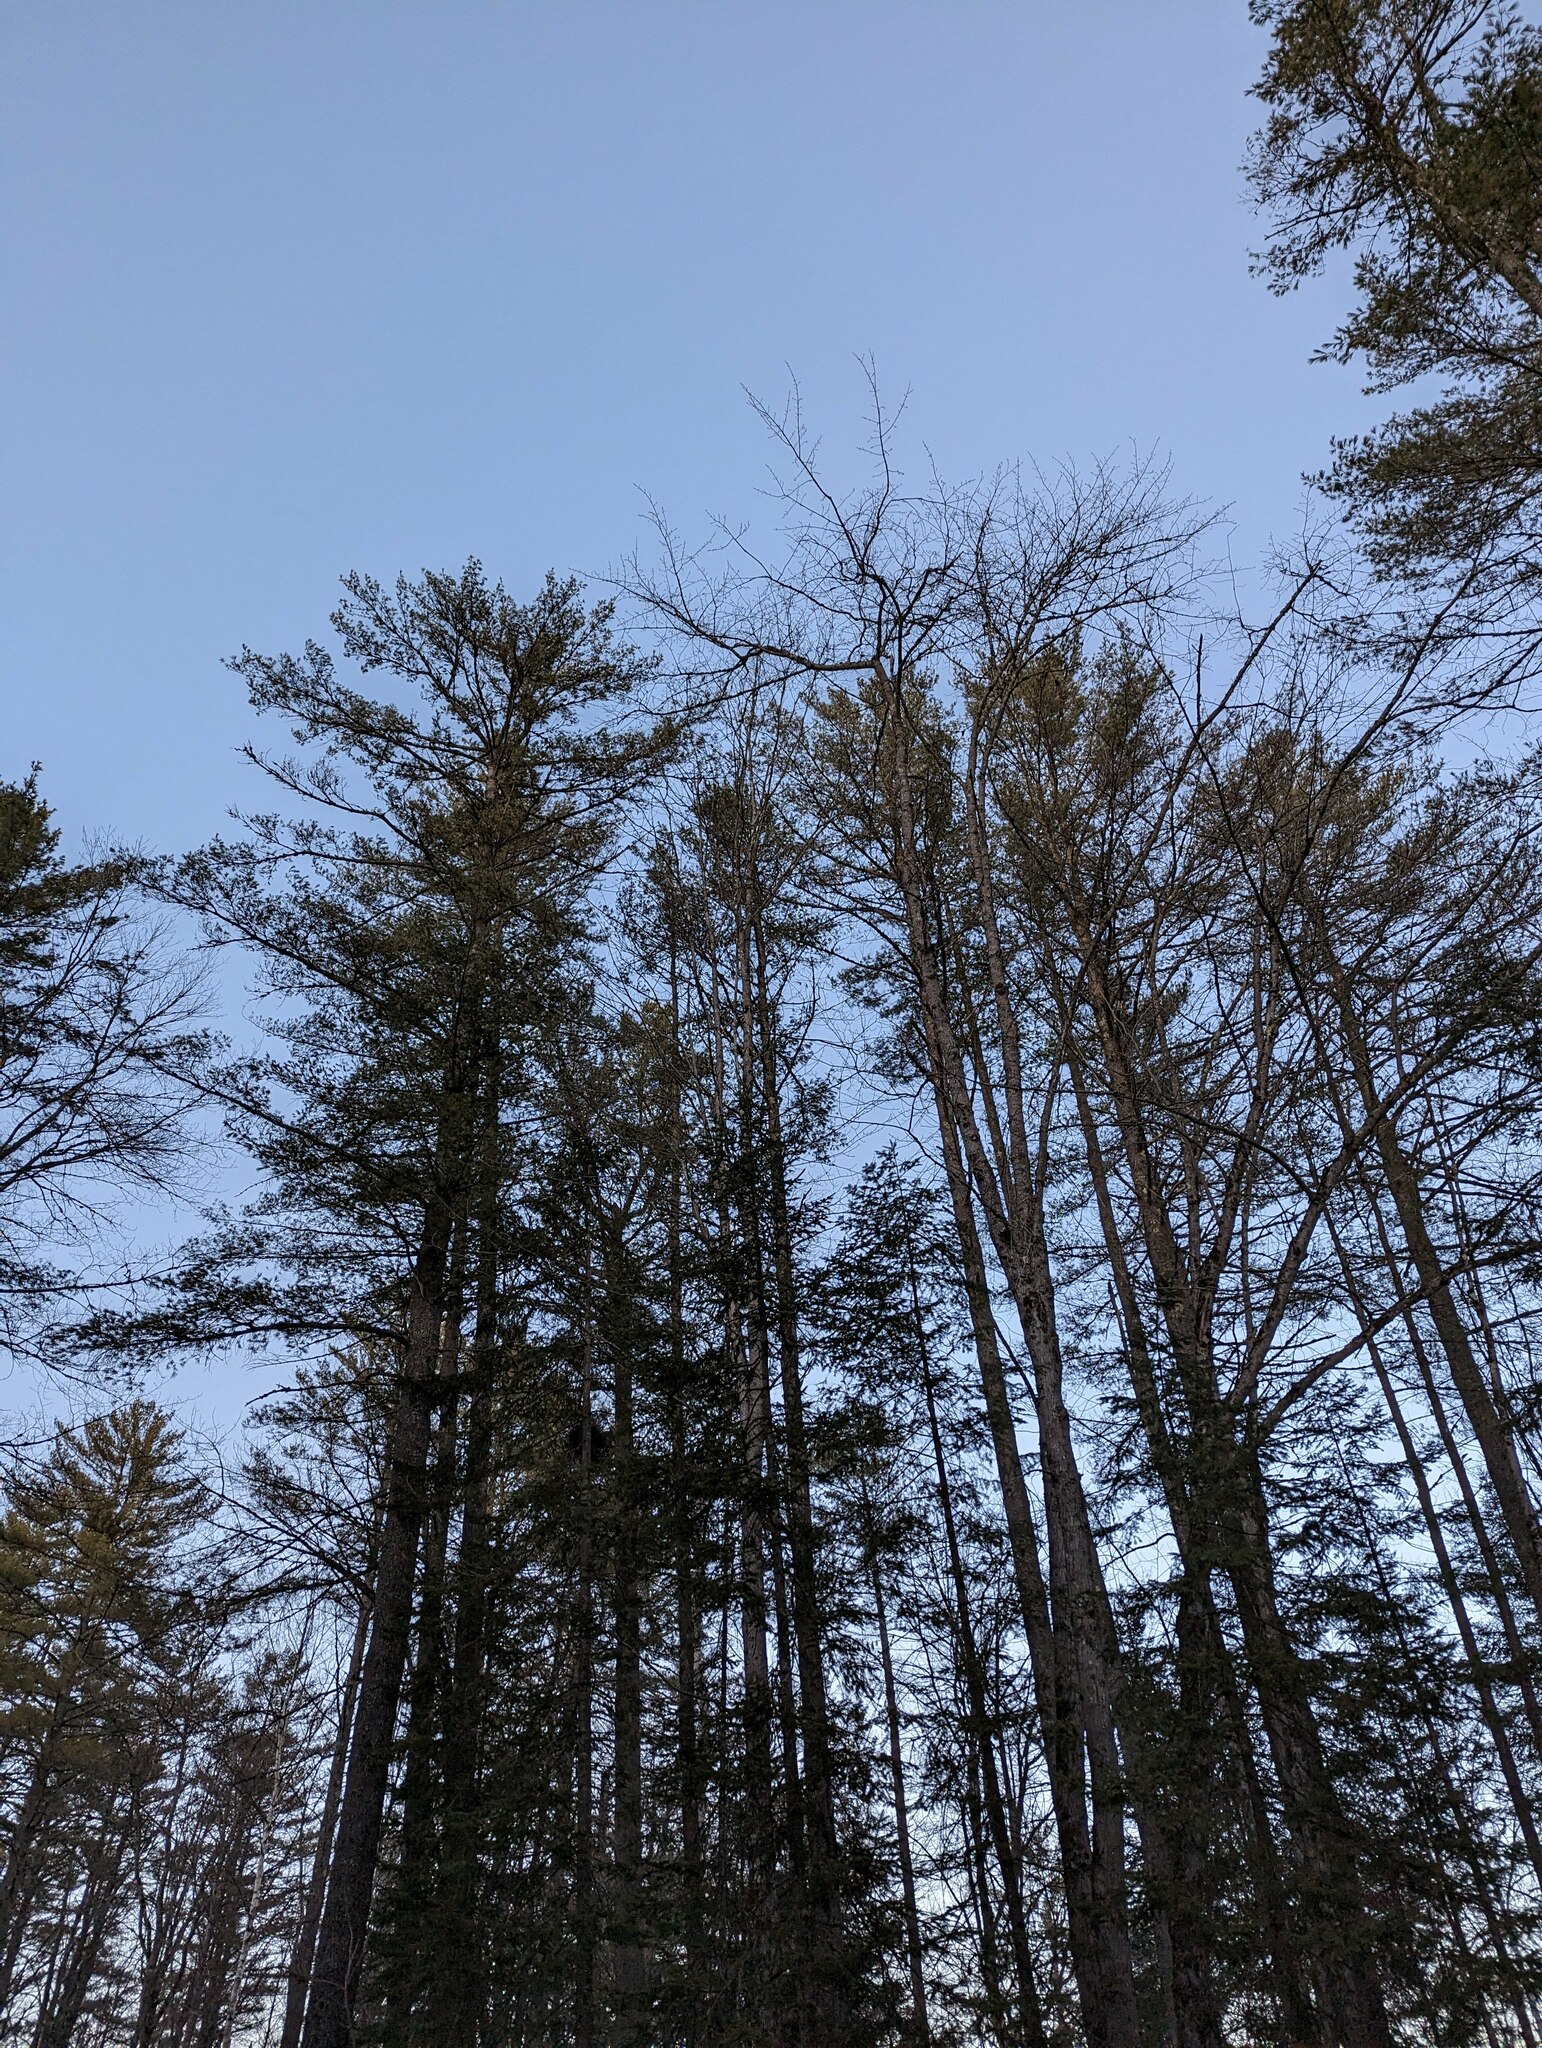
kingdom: Plantae
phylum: Tracheophyta
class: Pinopsida
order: Pinales
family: Pinaceae
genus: Pinus
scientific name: Pinus strobus
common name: Weymouth pine
